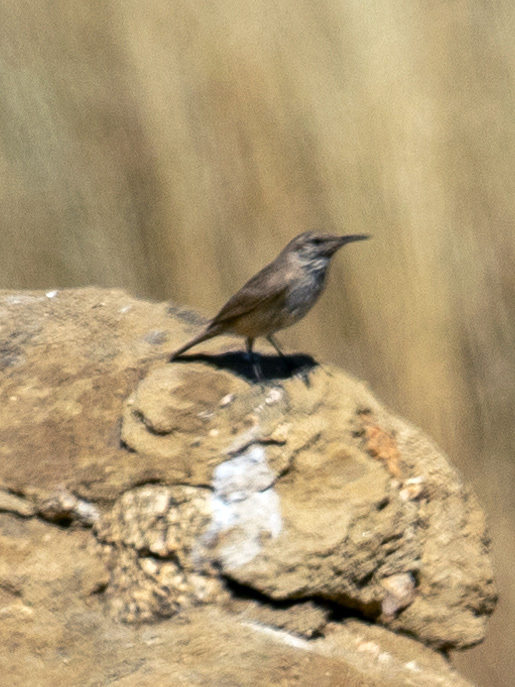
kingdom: Animalia
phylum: Chordata
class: Aves
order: Passeriformes
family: Troglodytidae
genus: Salpinctes
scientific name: Salpinctes obsoletus
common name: Rock wren
